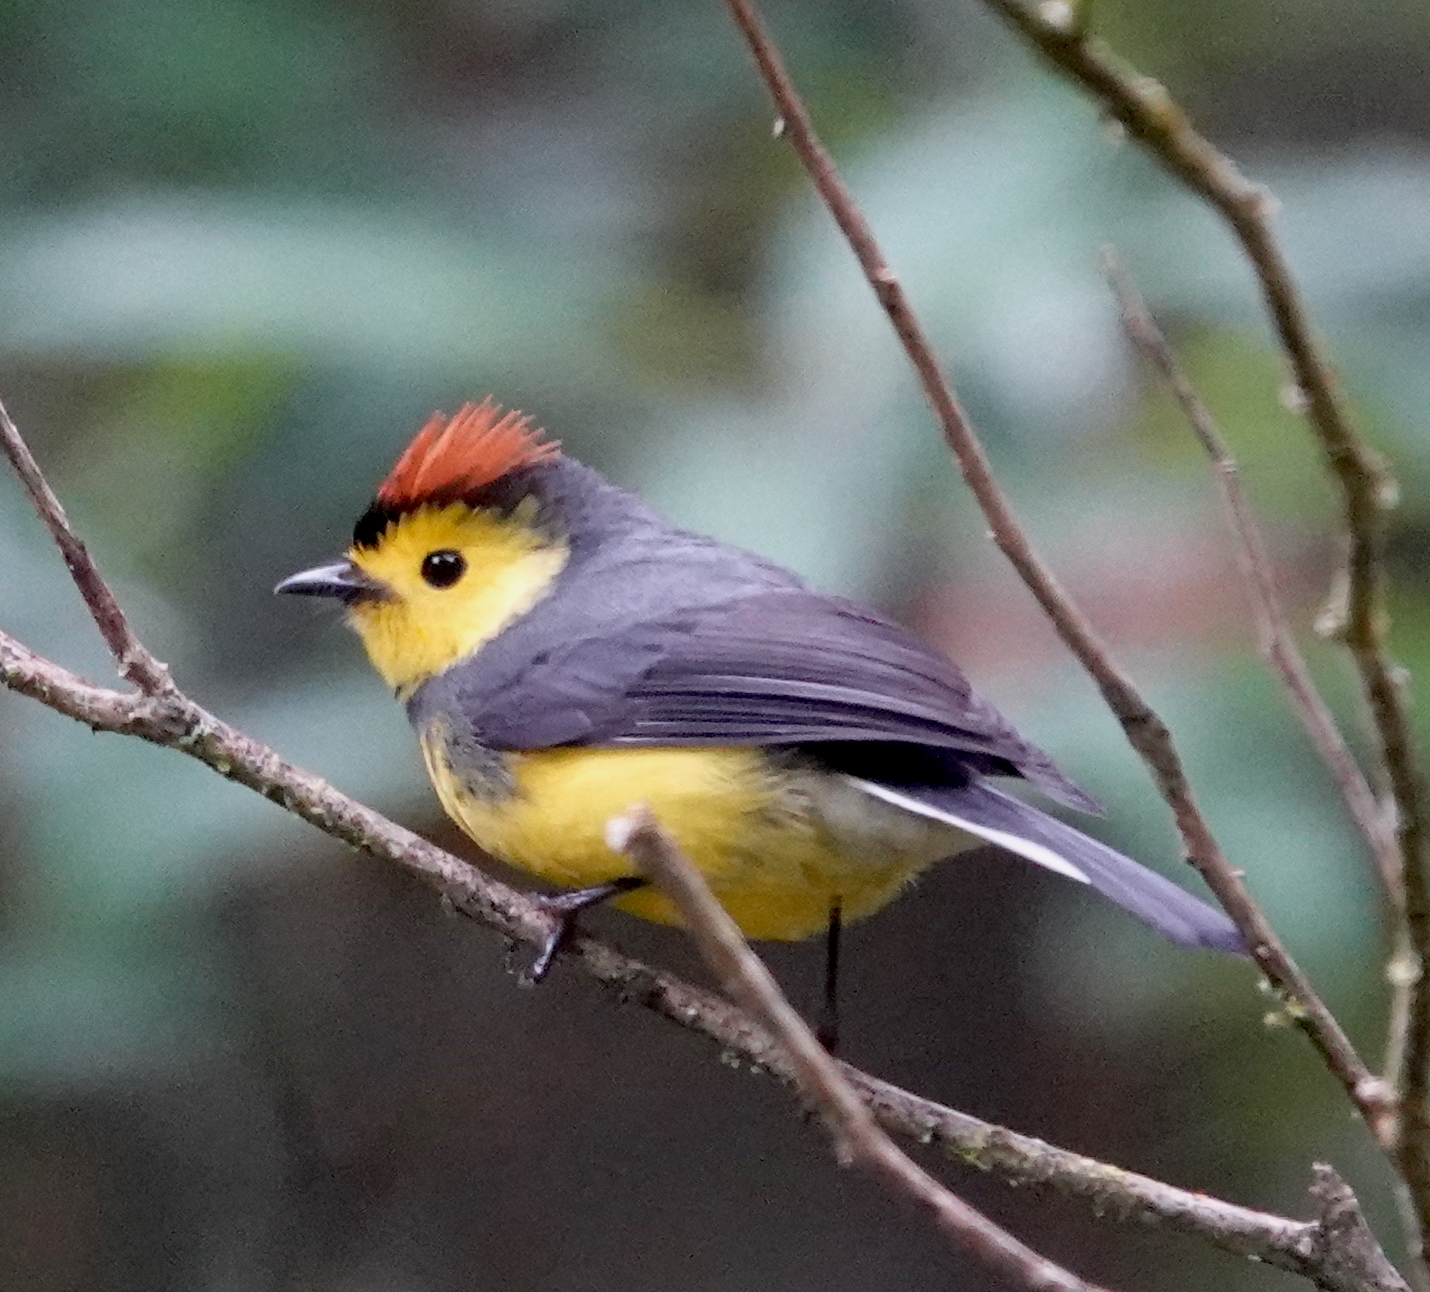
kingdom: Animalia
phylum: Chordata
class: Aves
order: Passeriformes
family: Parulidae
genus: Myioborus
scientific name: Myioborus torquatus
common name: Collared whitestart
